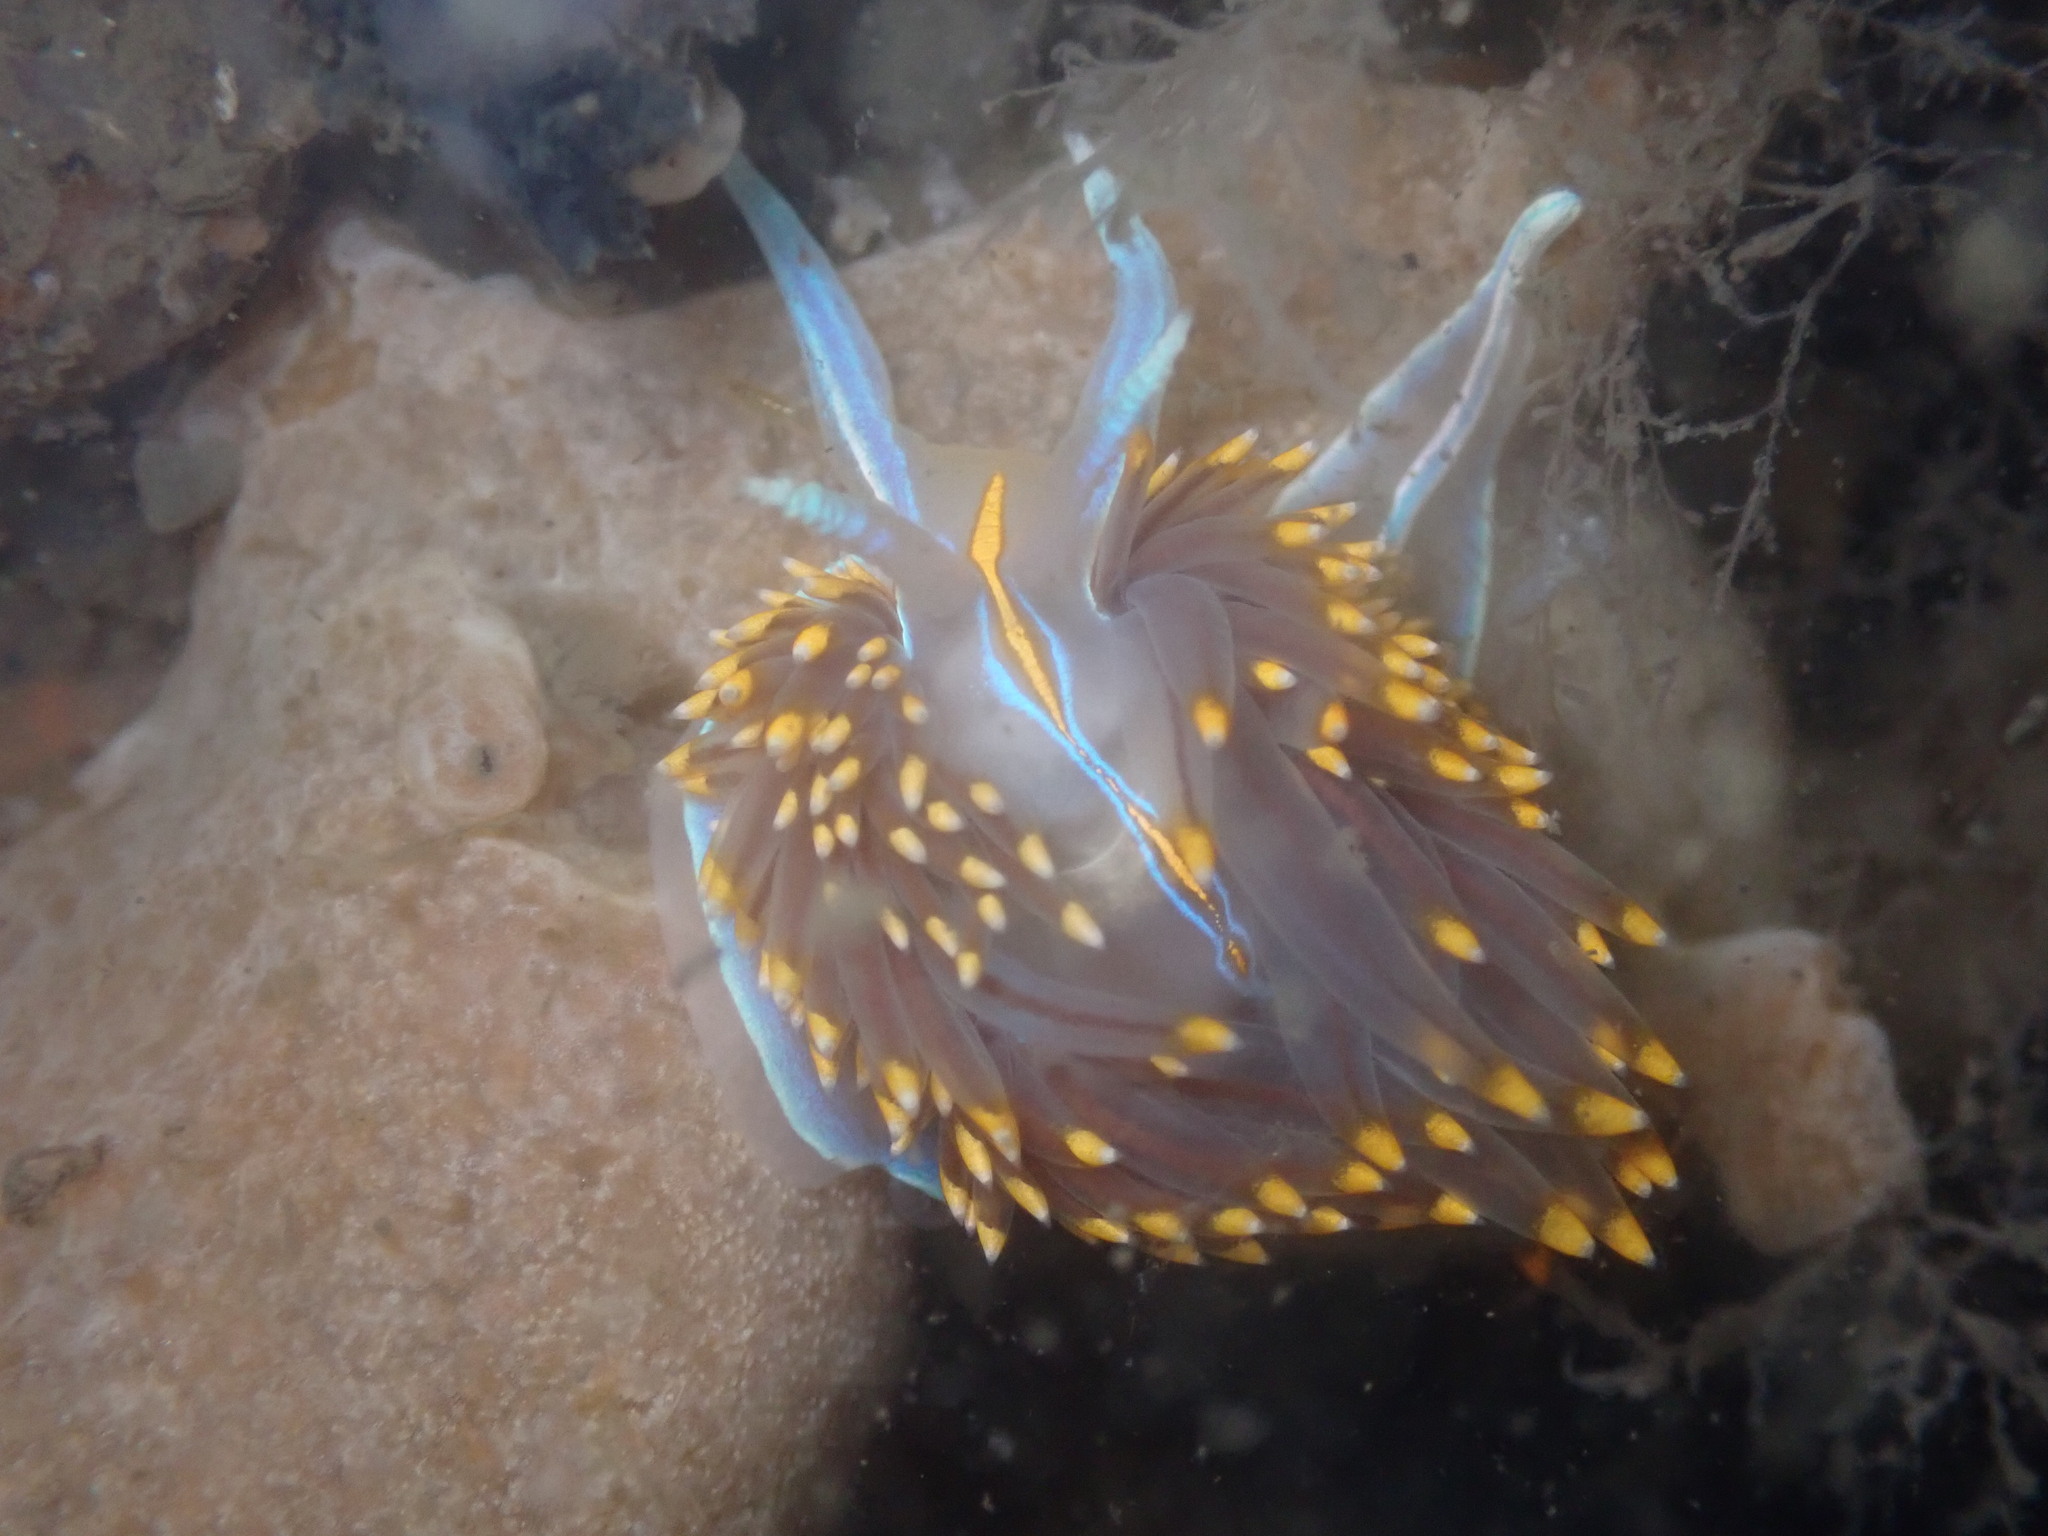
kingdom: Animalia
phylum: Mollusca
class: Gastropoda
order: Nudibranchia
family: Myrrhinidae
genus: Hermissenda
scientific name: Hermissenda opalescens
